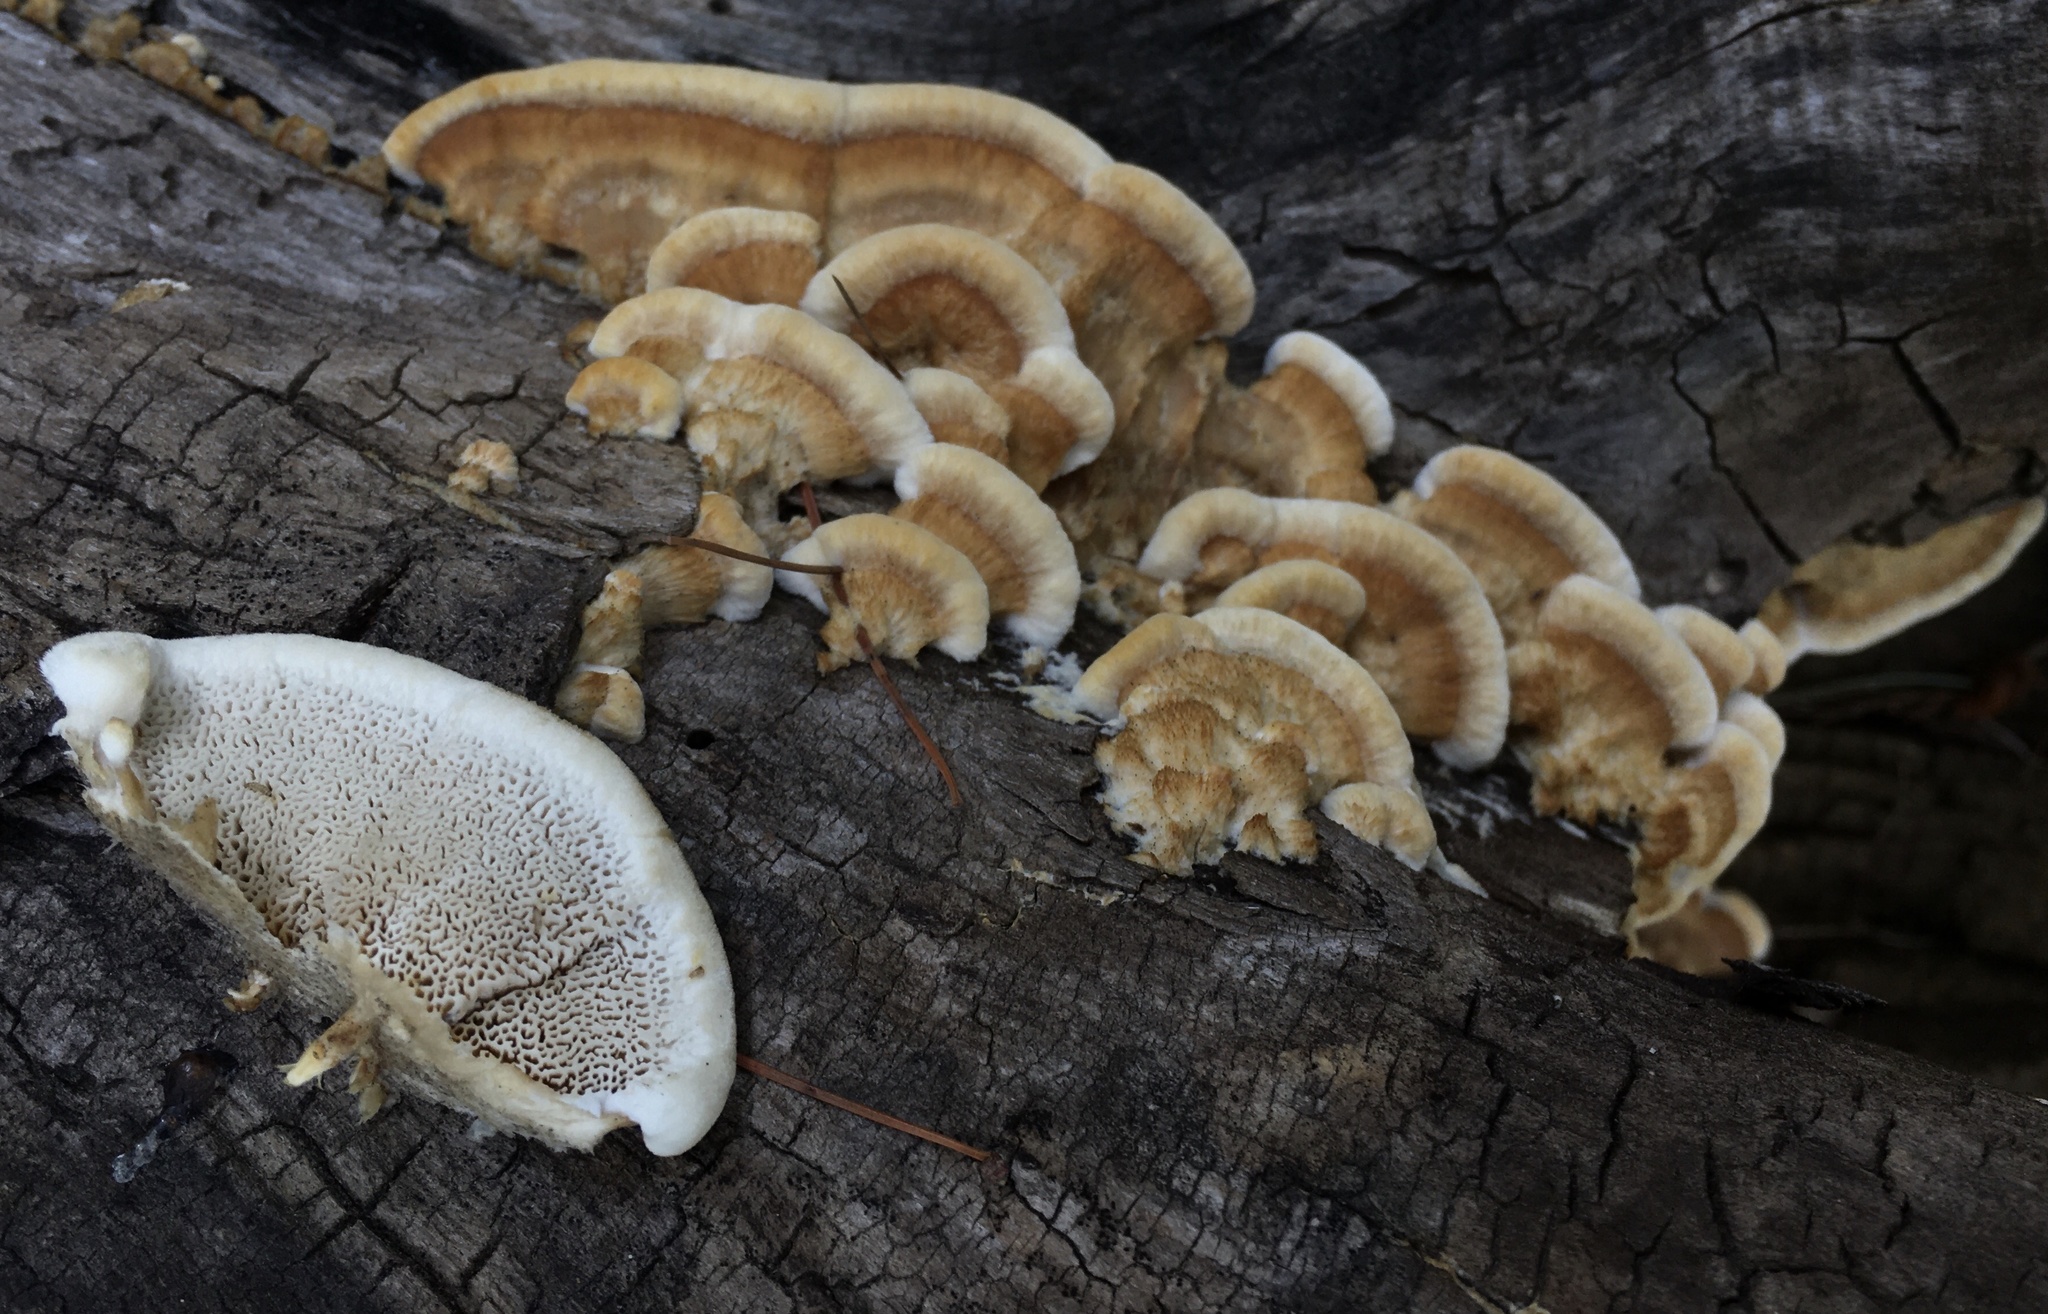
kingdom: Fungi
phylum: Basidiomycota
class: Agaricomycetes
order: Polyporales
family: Irpicaceae
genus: Trametopsis
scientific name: Trametopsis cervina
